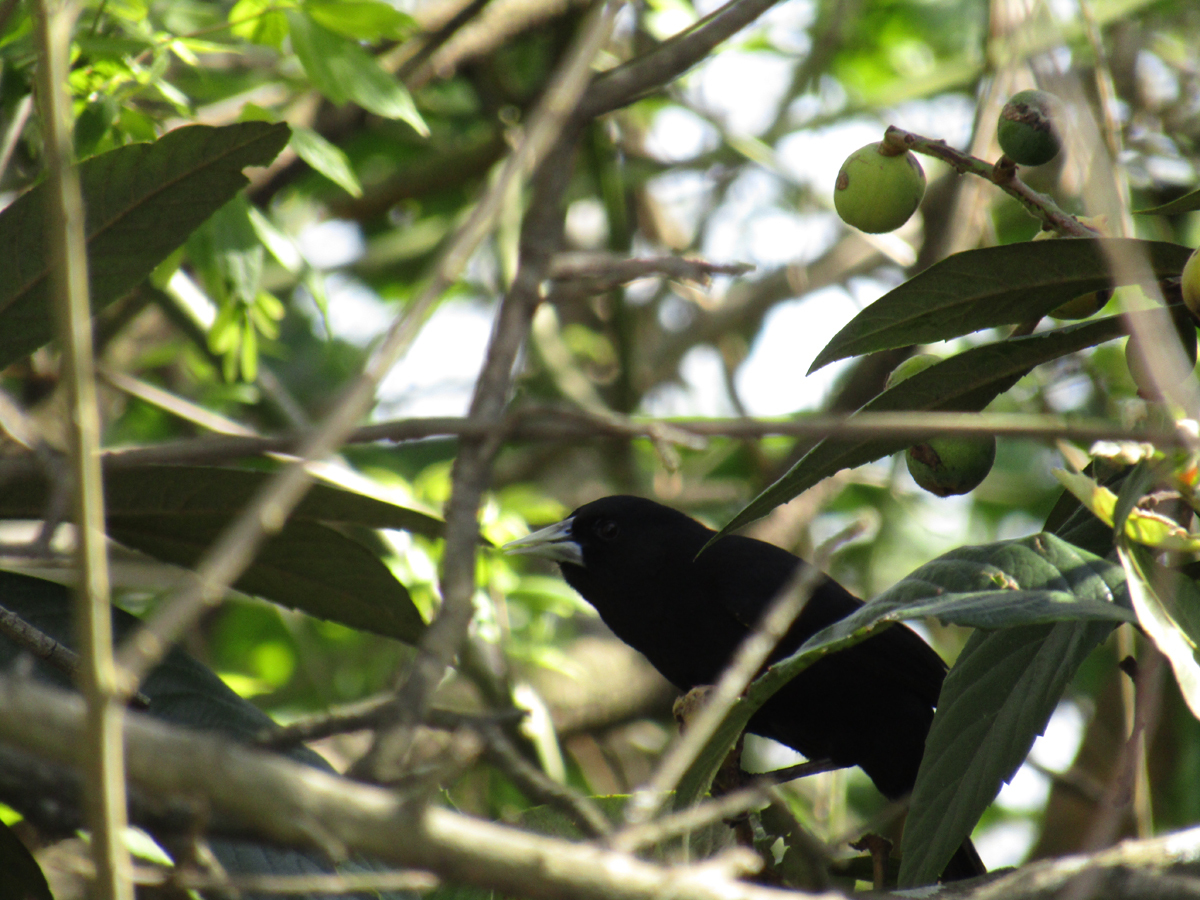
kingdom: Animalia
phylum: Chordata
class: Aves
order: Passeriformes
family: Icteridae
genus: Cacicus
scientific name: Cacicus solitarius
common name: Solitary cacique
